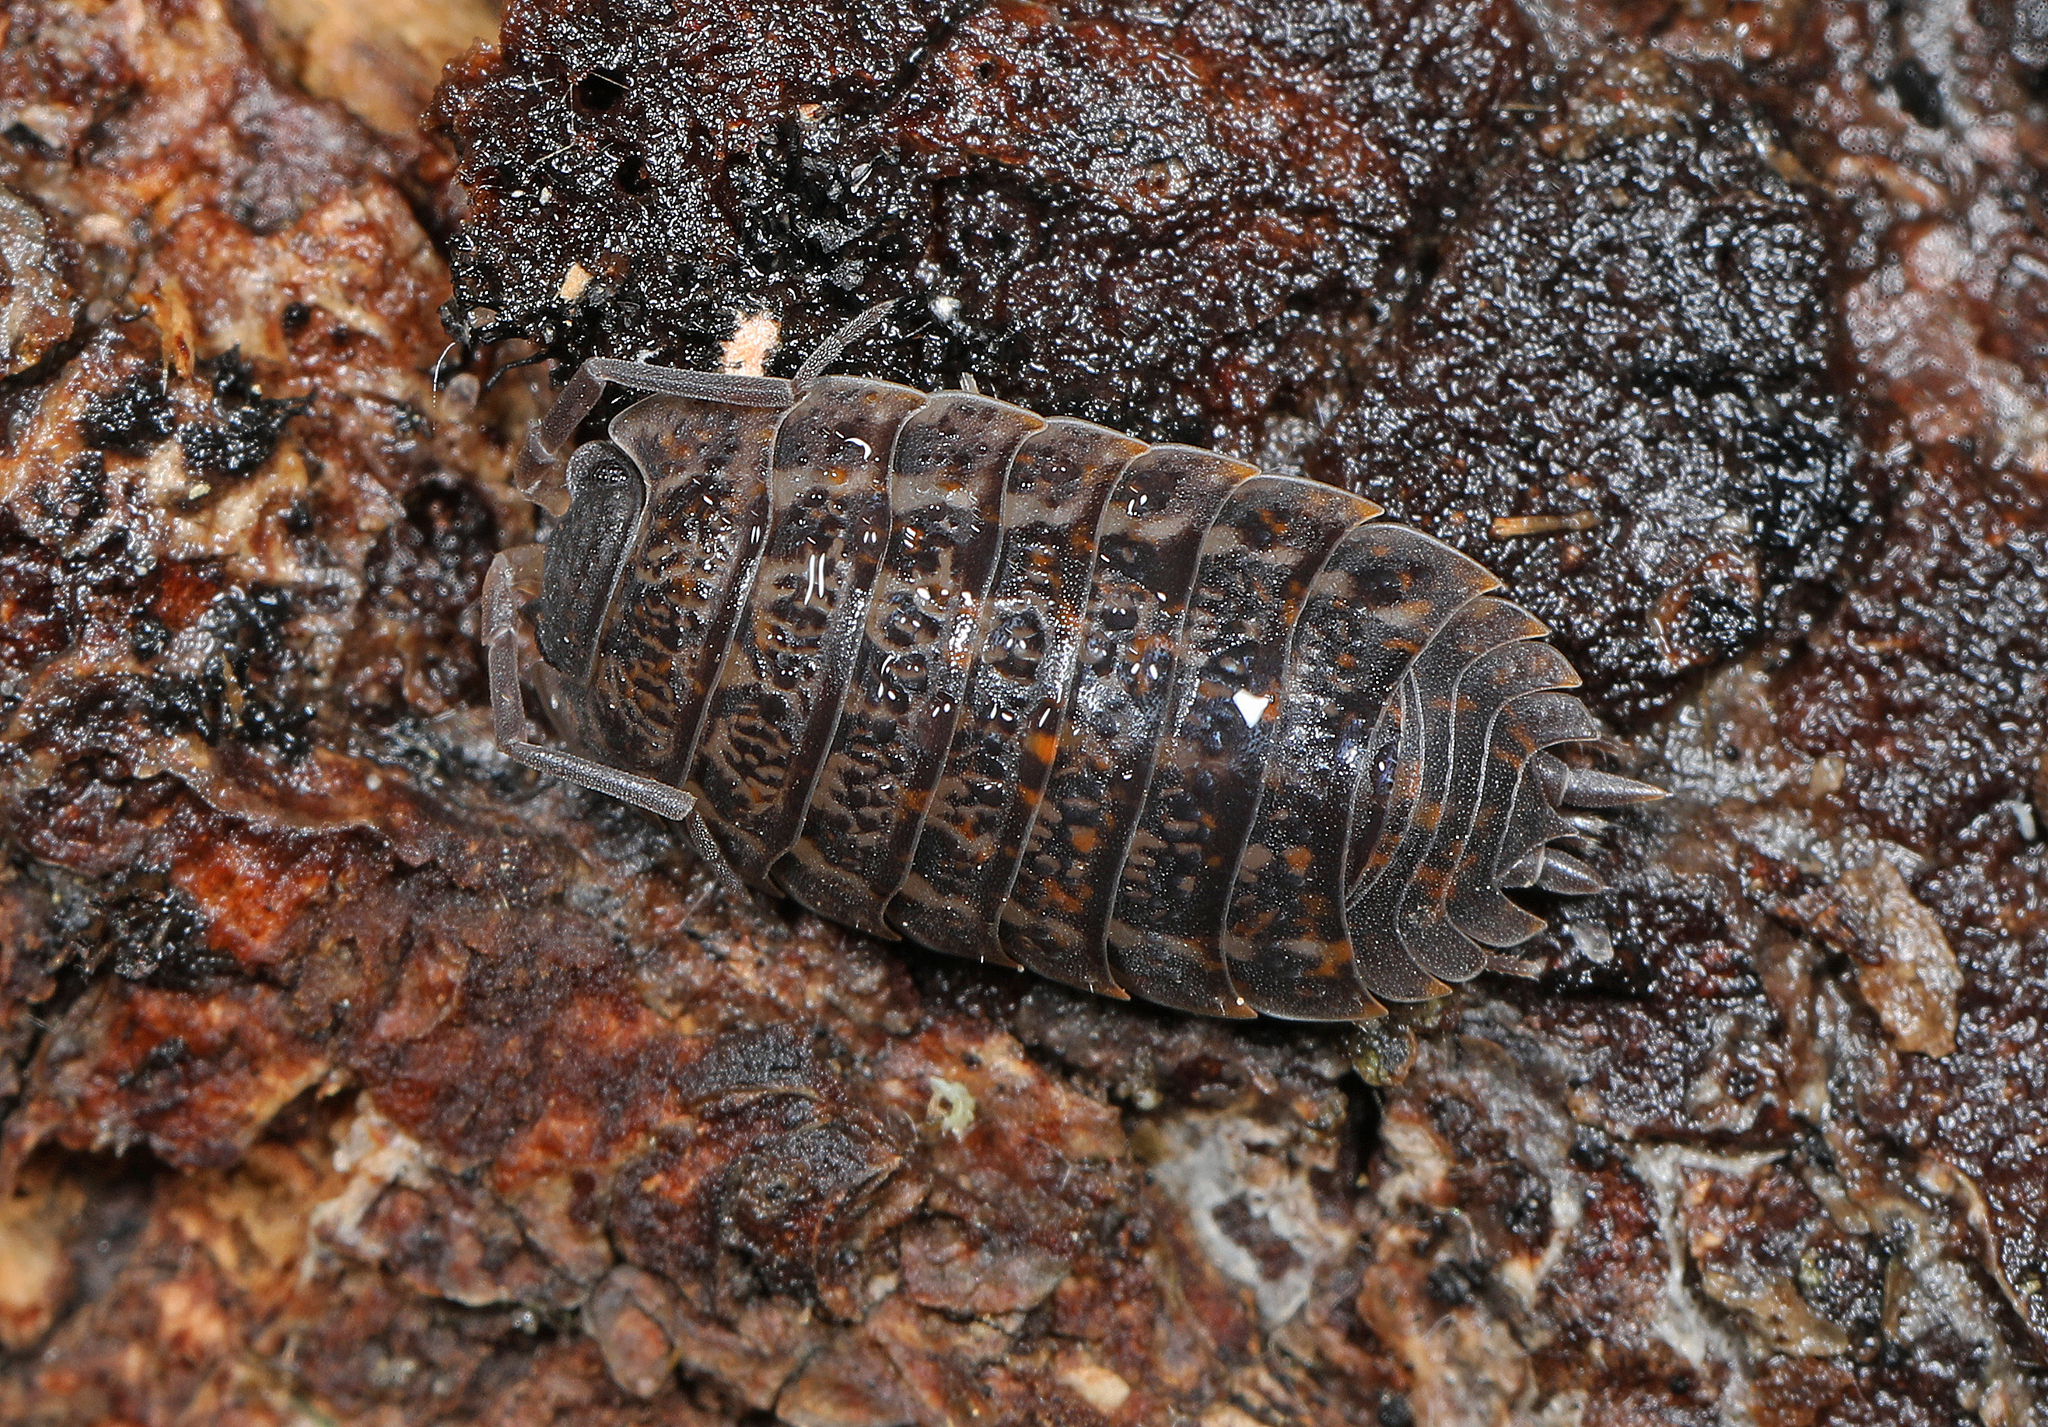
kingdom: Animalia
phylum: Arthropoda
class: Malacostraca
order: Isopoda
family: Trachelipodidae
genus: Trachelipus
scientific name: Trachelipus rathkii
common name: Isopod
